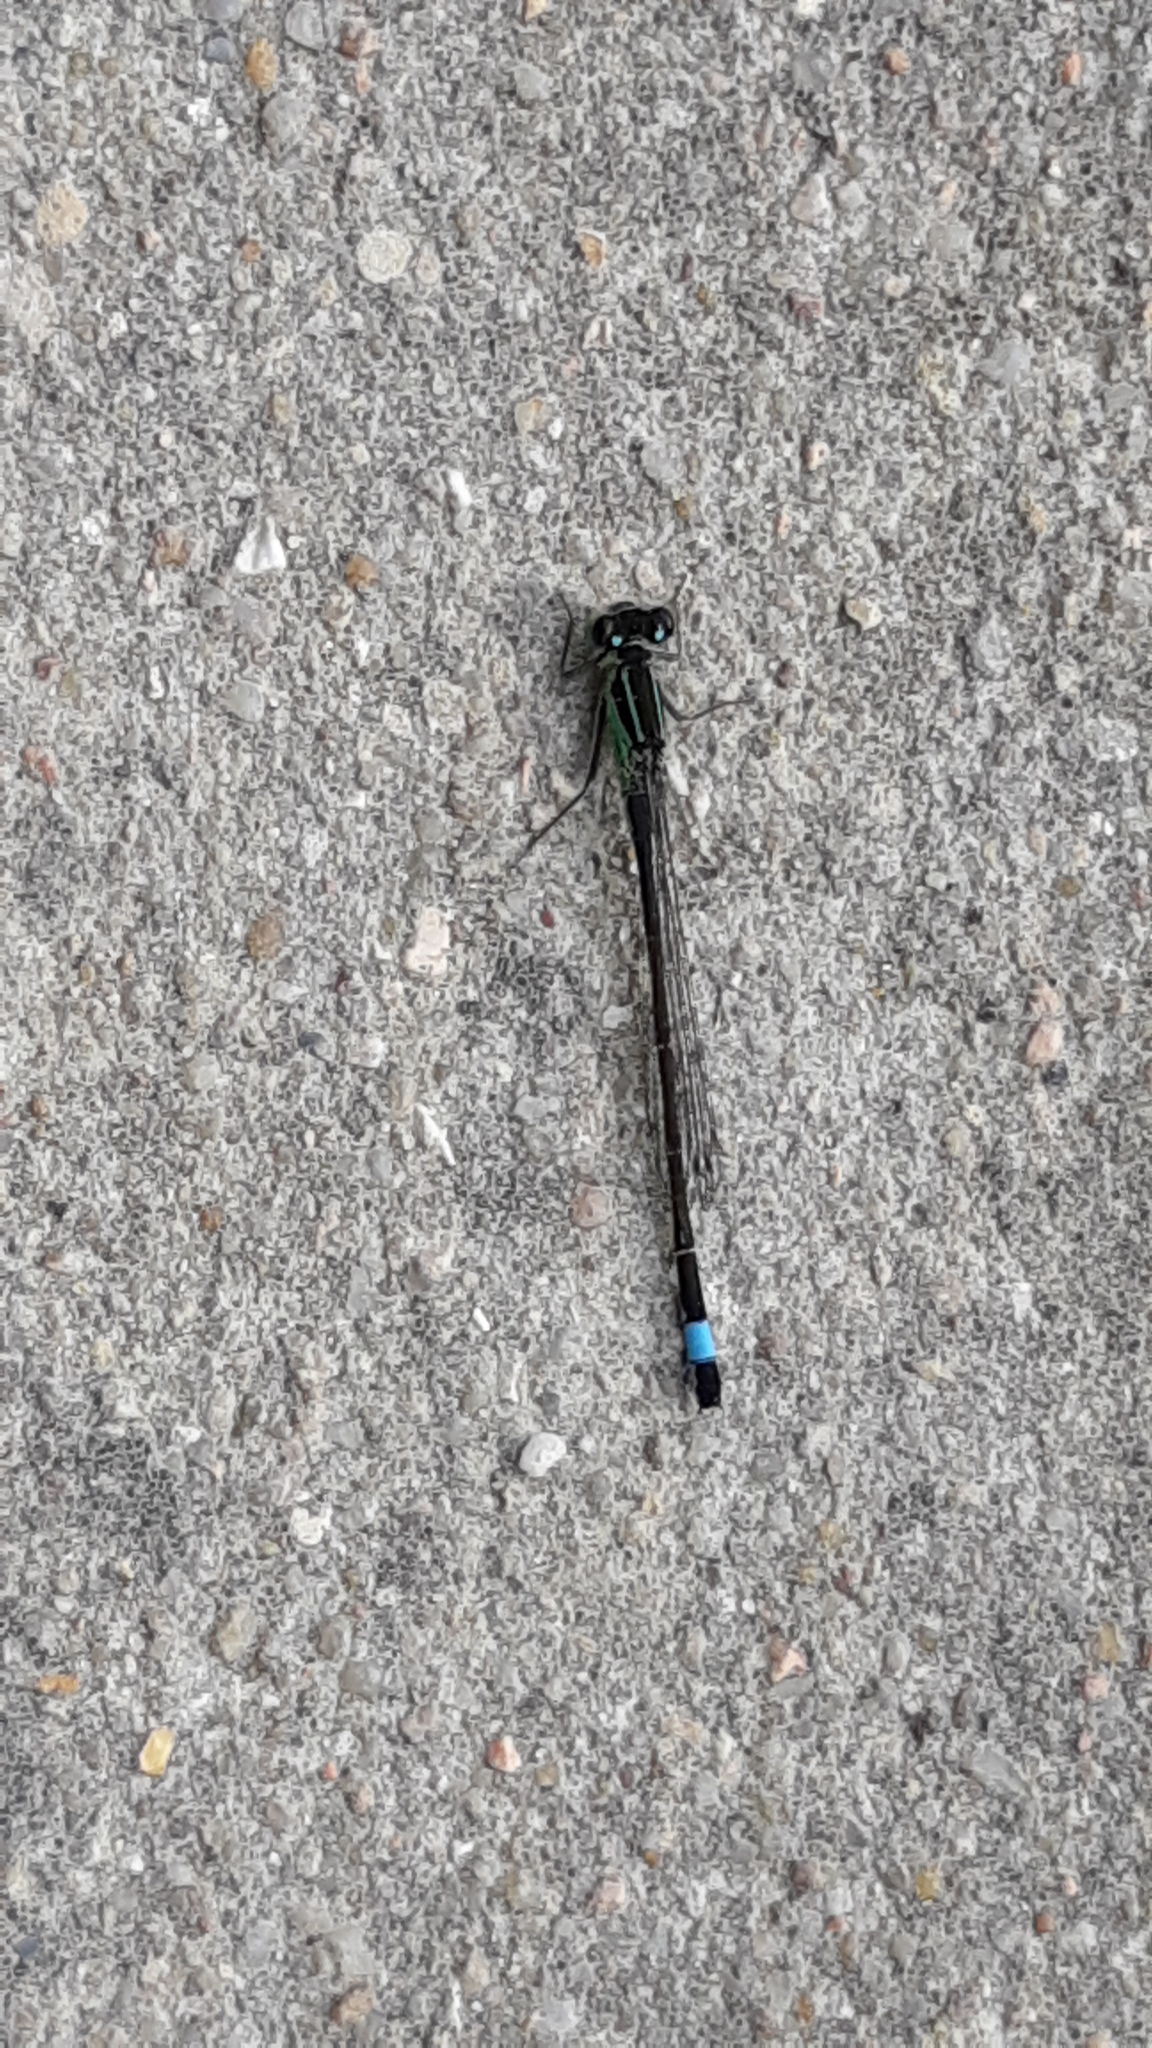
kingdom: Animalia
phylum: Arthropoda
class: Insecta
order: Odonata
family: Coenagrionidae
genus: Ischnura
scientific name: Ischnura elegans
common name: Blue-tailed damselfly
